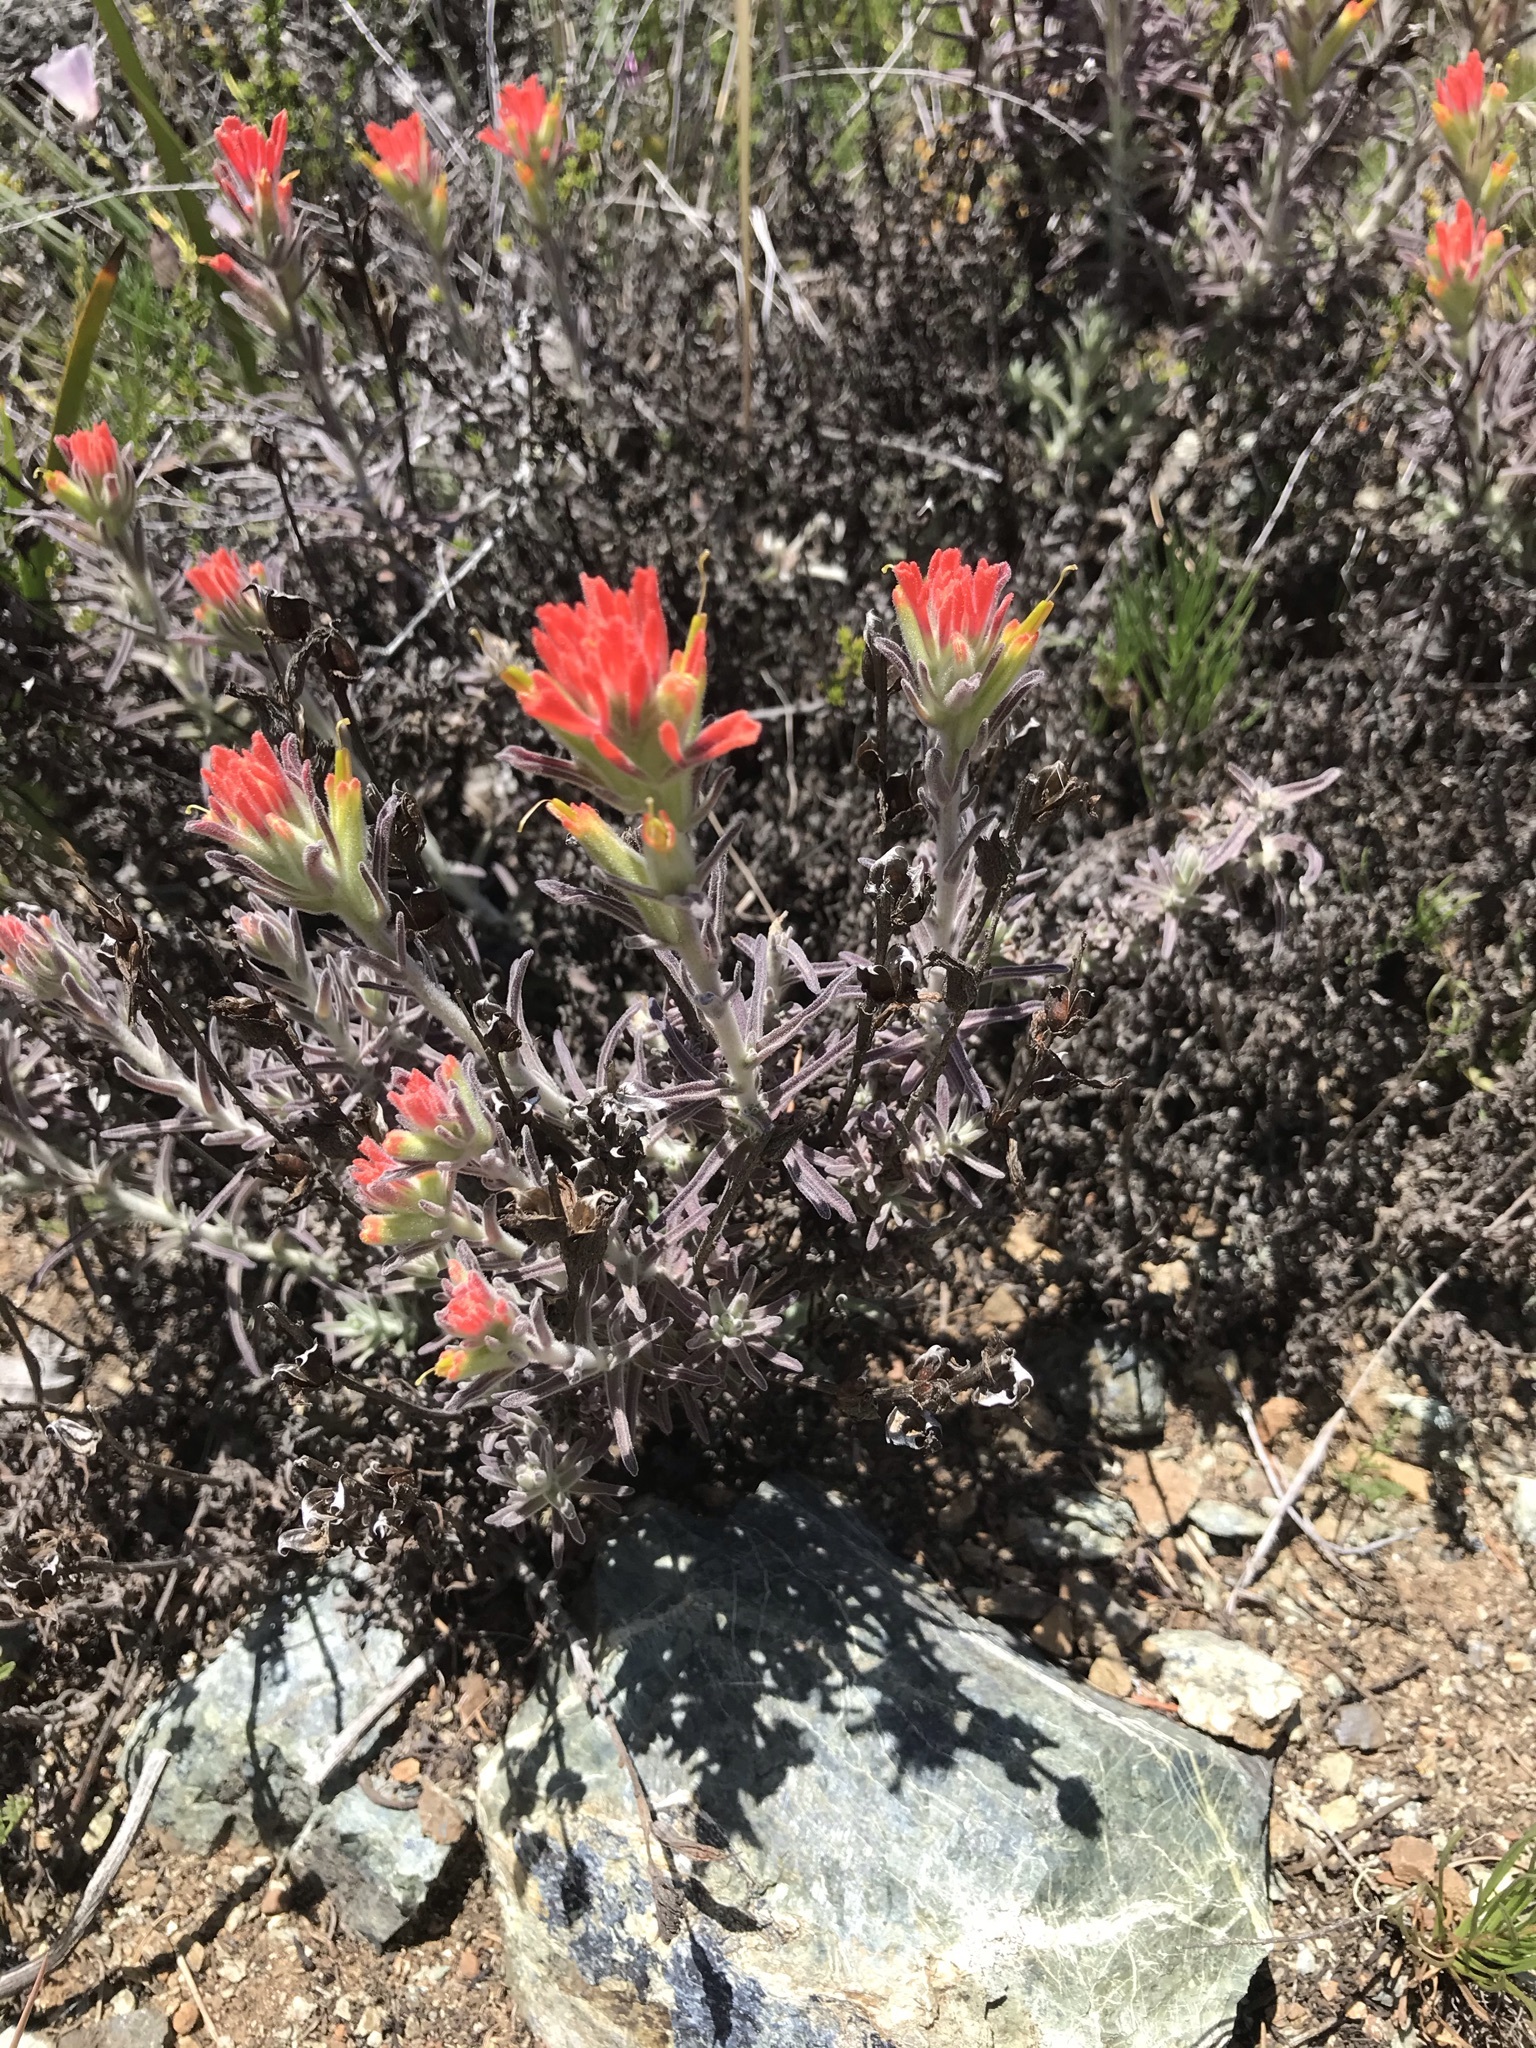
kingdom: Plantae
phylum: Tracheophyta
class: Magnoliopsida
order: Lamiales
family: Orobanchaceae
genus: Castilleja
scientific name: Castilleja foliolosa
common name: Woolly indian paintbrush
